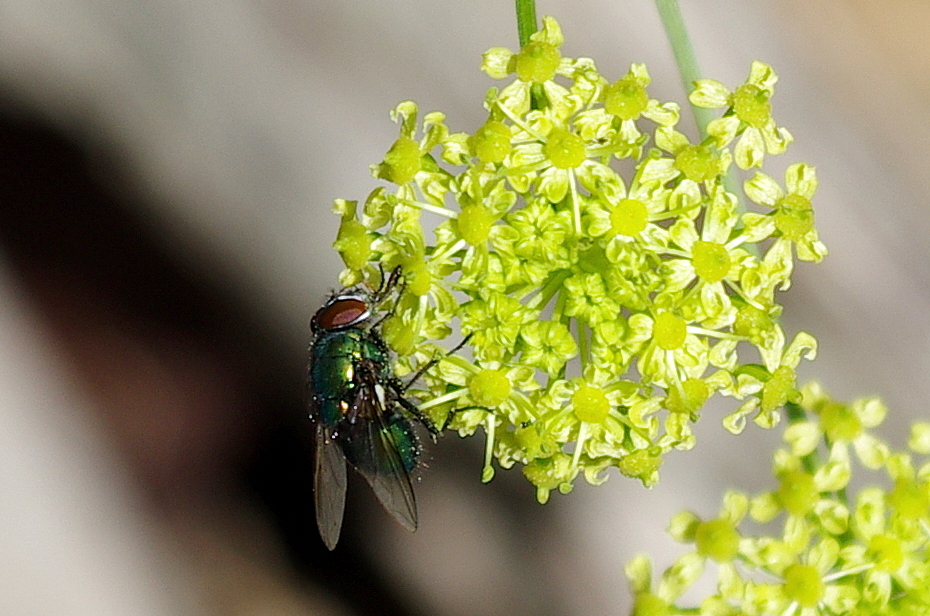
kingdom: Plantae
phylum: Tracheophyta
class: Magnoliopsida
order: Apiales
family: Apiaceae
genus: Heracleum
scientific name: Heracleum sphondylium
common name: Hogweed
